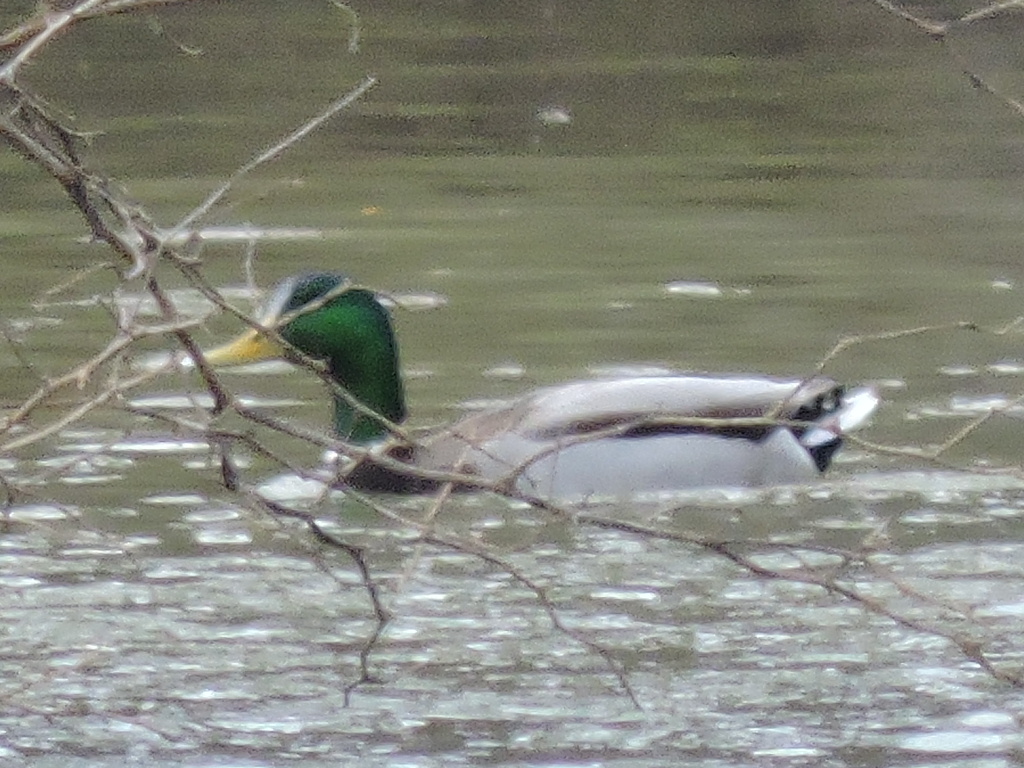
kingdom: Animalia
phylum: Chordata
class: Aves
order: Anseriformes
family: Anatidae
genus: Anas
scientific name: Anas platyrhynchos
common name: Mallard
